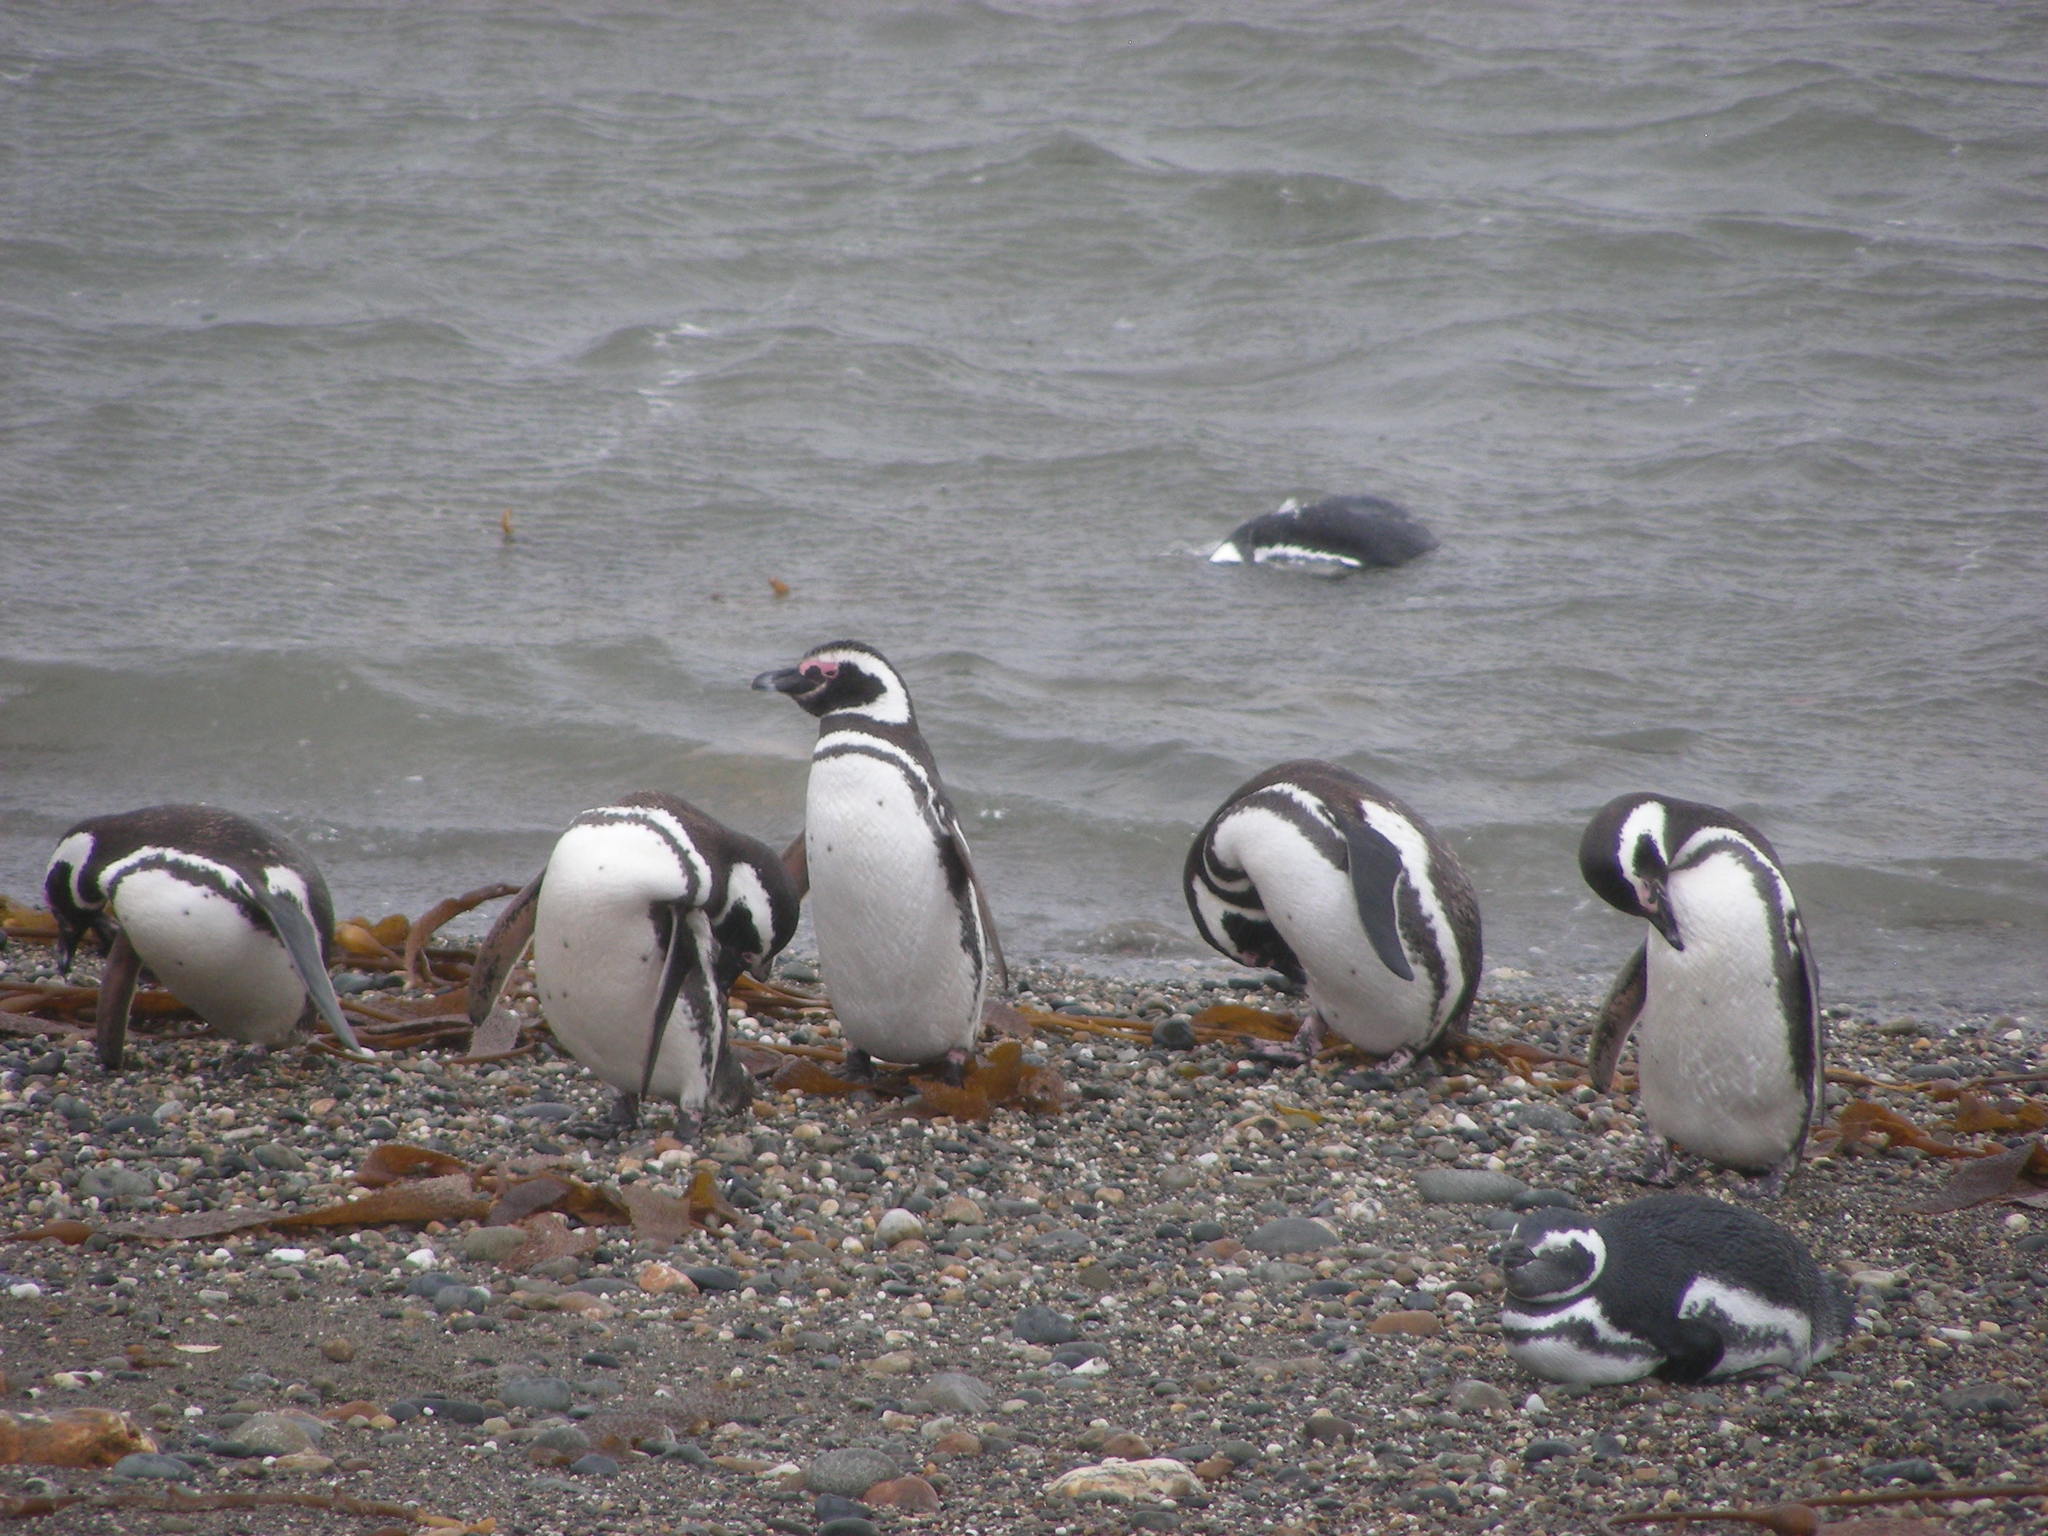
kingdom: Animalia
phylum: Chordata
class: Aves
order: Sphenisciformes
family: Spheniscidae
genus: Spheniscus
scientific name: Spheniscus magellanicus
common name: Magellanic penguin
